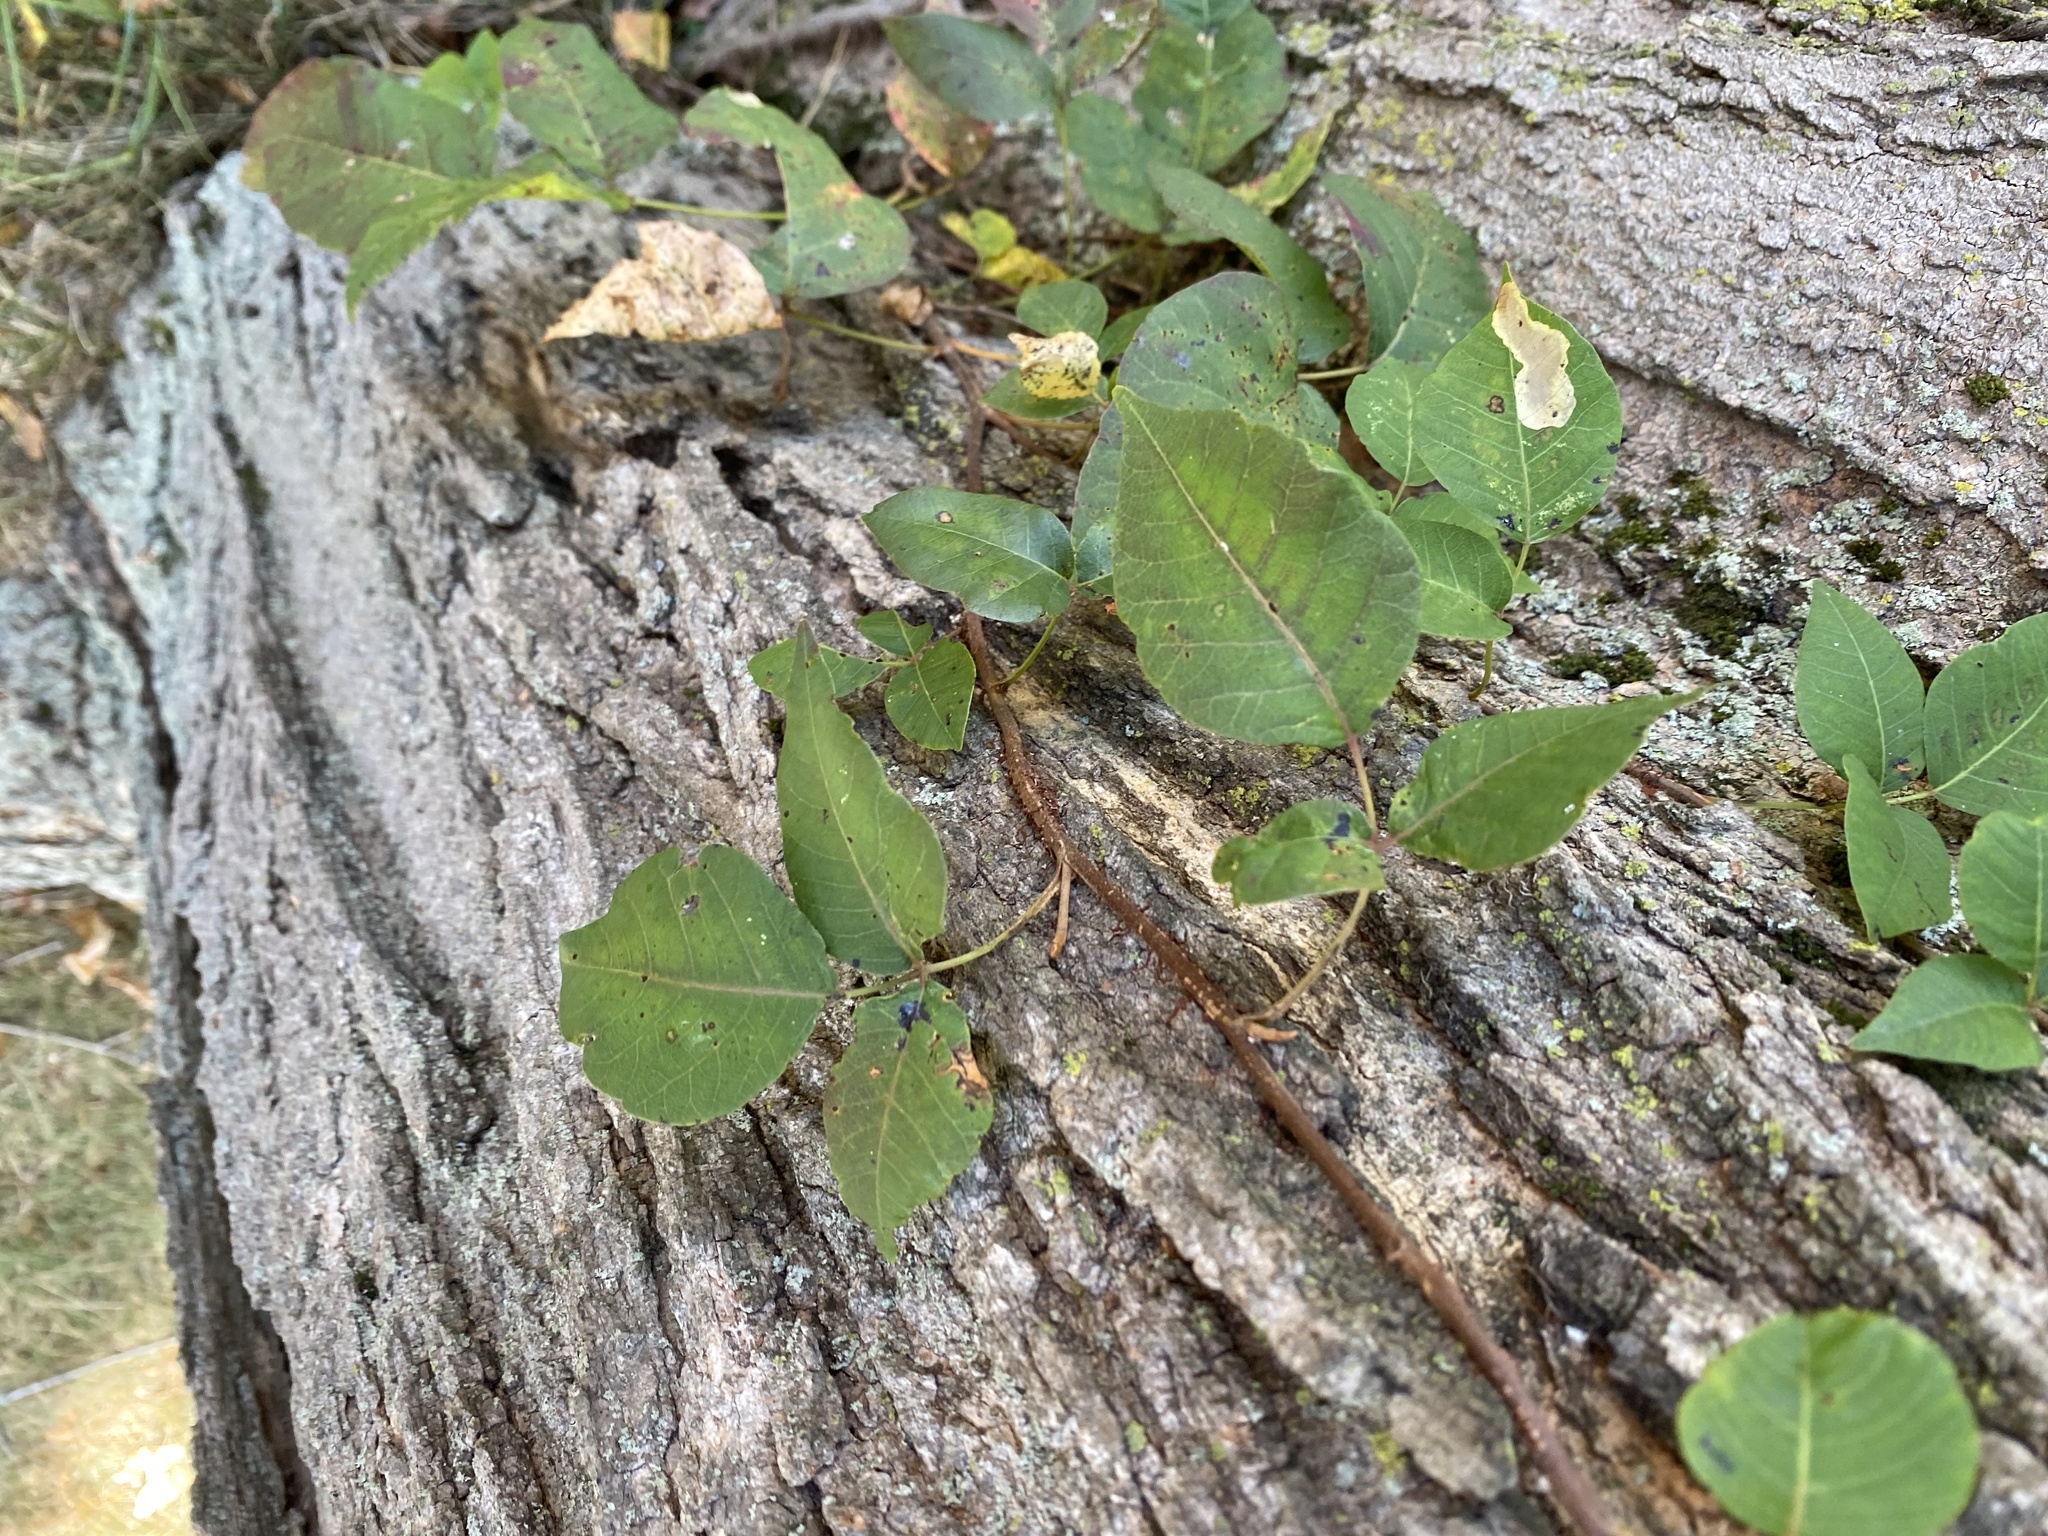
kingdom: Plantae
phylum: Tracheophyta
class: Magnoliopsida
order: Sapindales
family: Anacardiaceae
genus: Toxicodendron
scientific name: Toxicodendron radicans
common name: Poison ivy
